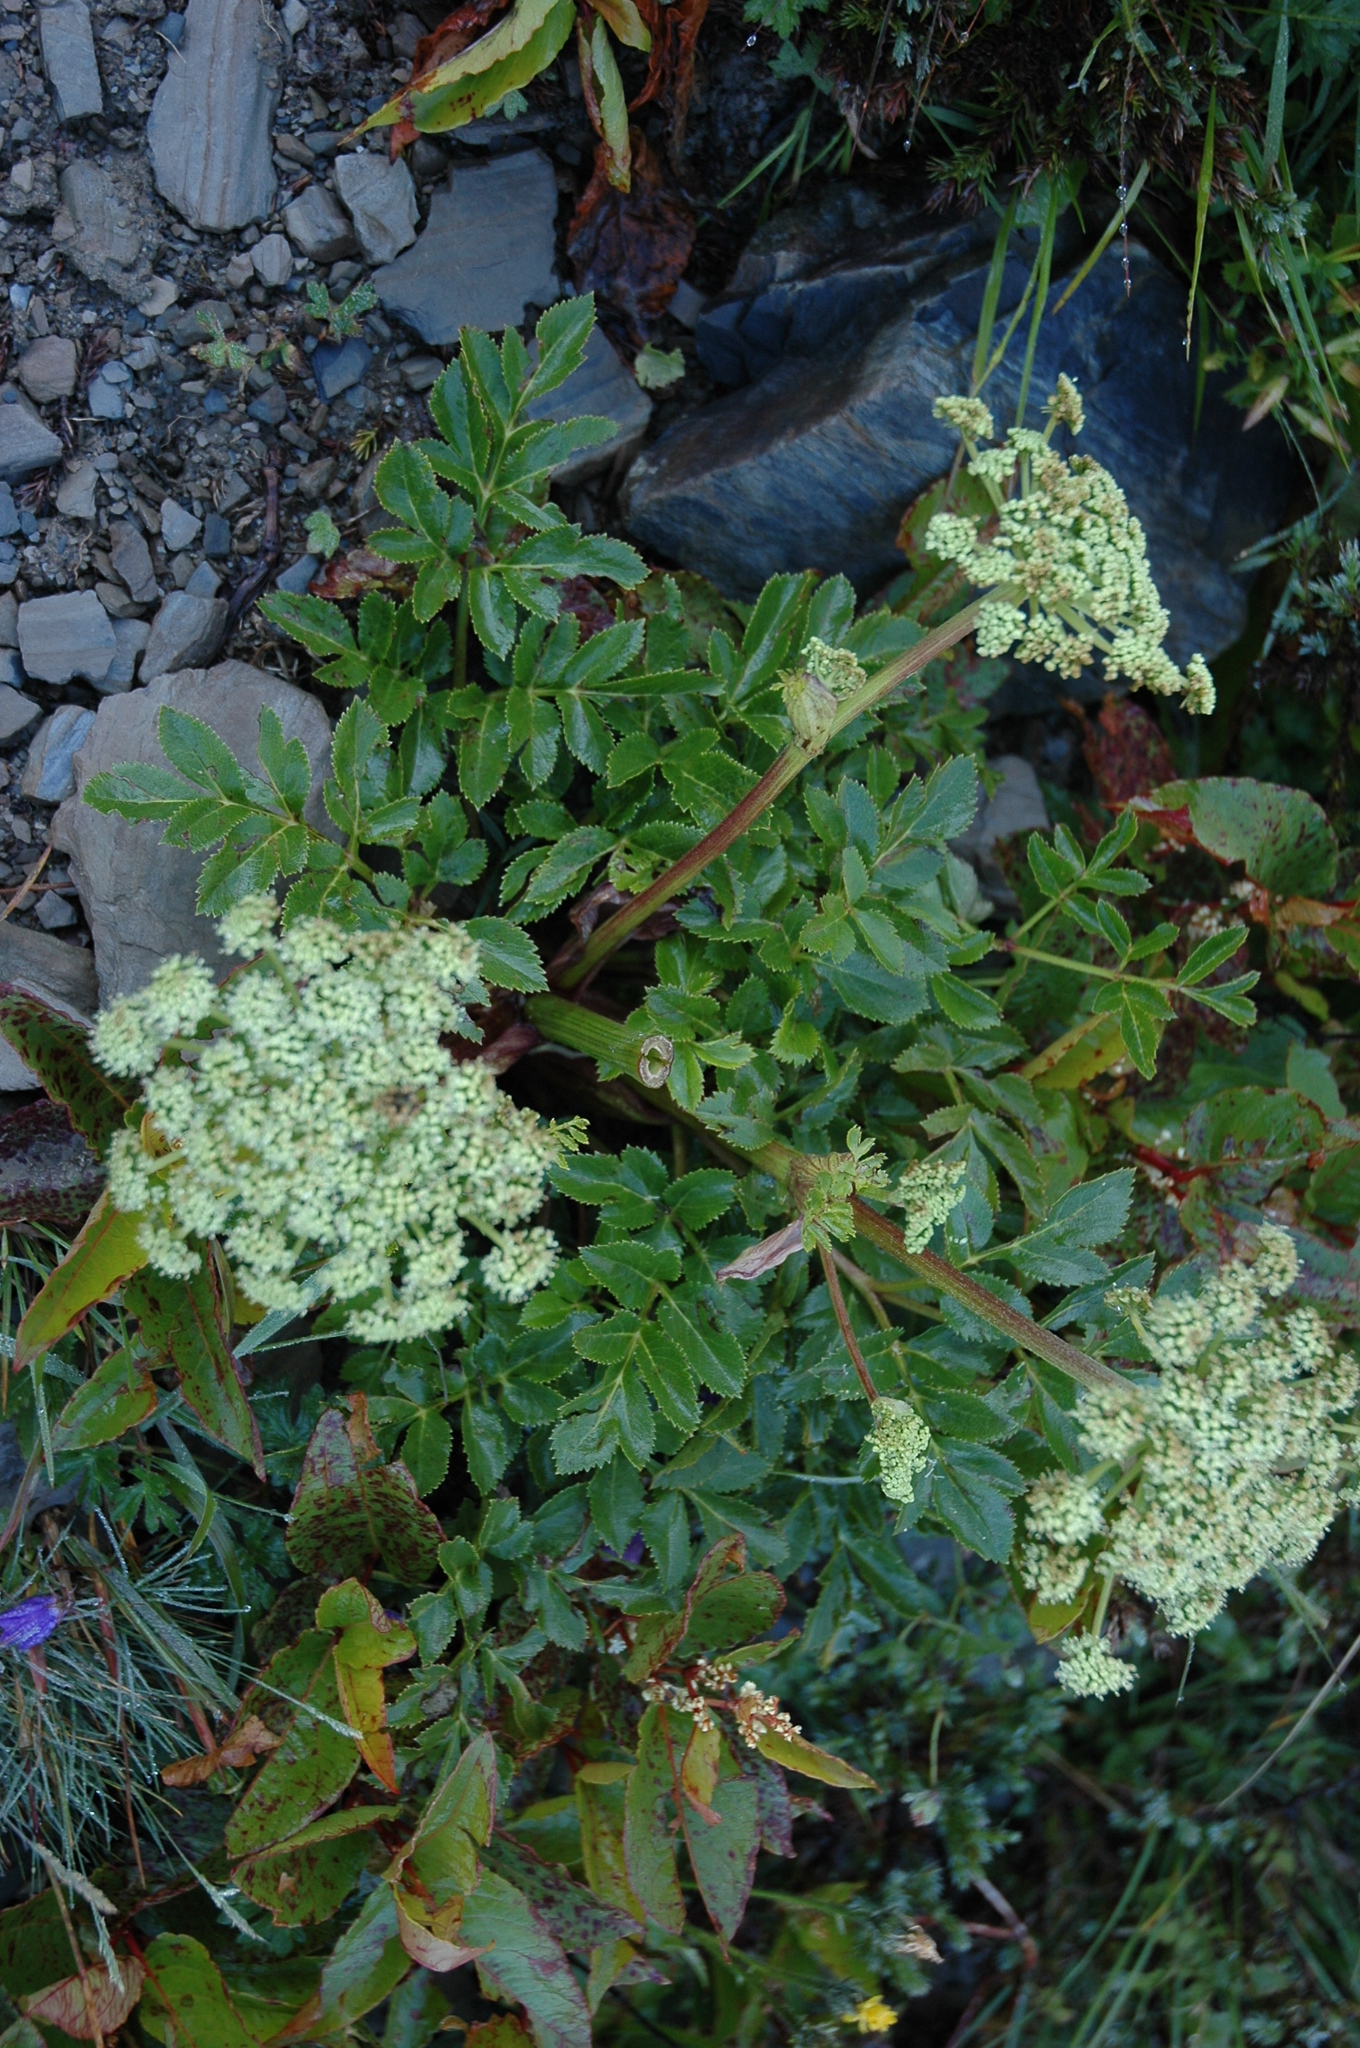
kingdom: Plantae
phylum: Tracheophyta
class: Magnoliopsida
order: Apiales
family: Apiaceae
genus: Angelica
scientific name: Angelica morrisonicola
